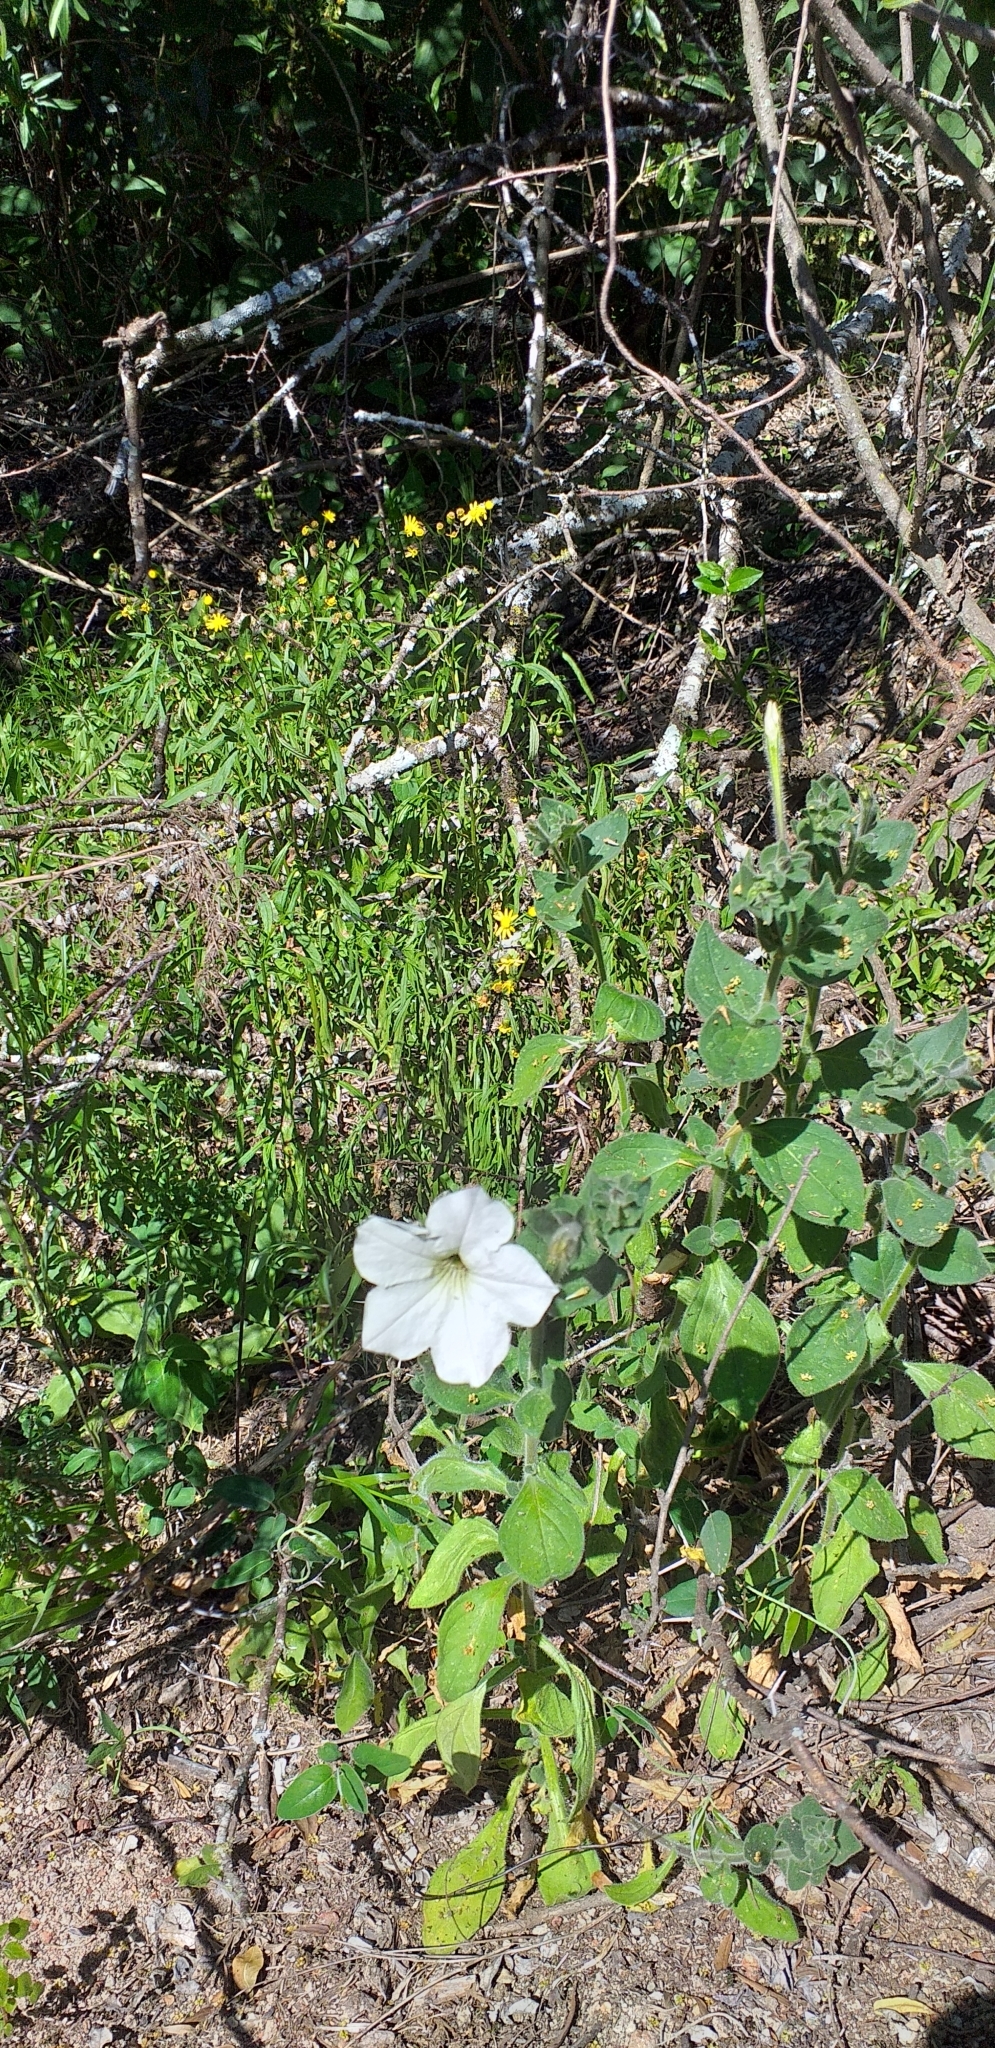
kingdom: Plantae
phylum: Tracheophyta
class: Magnoliopsida
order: Solanales
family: Solanaceae
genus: Petunia
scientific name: Petunia axillaris
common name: Large white petunia
